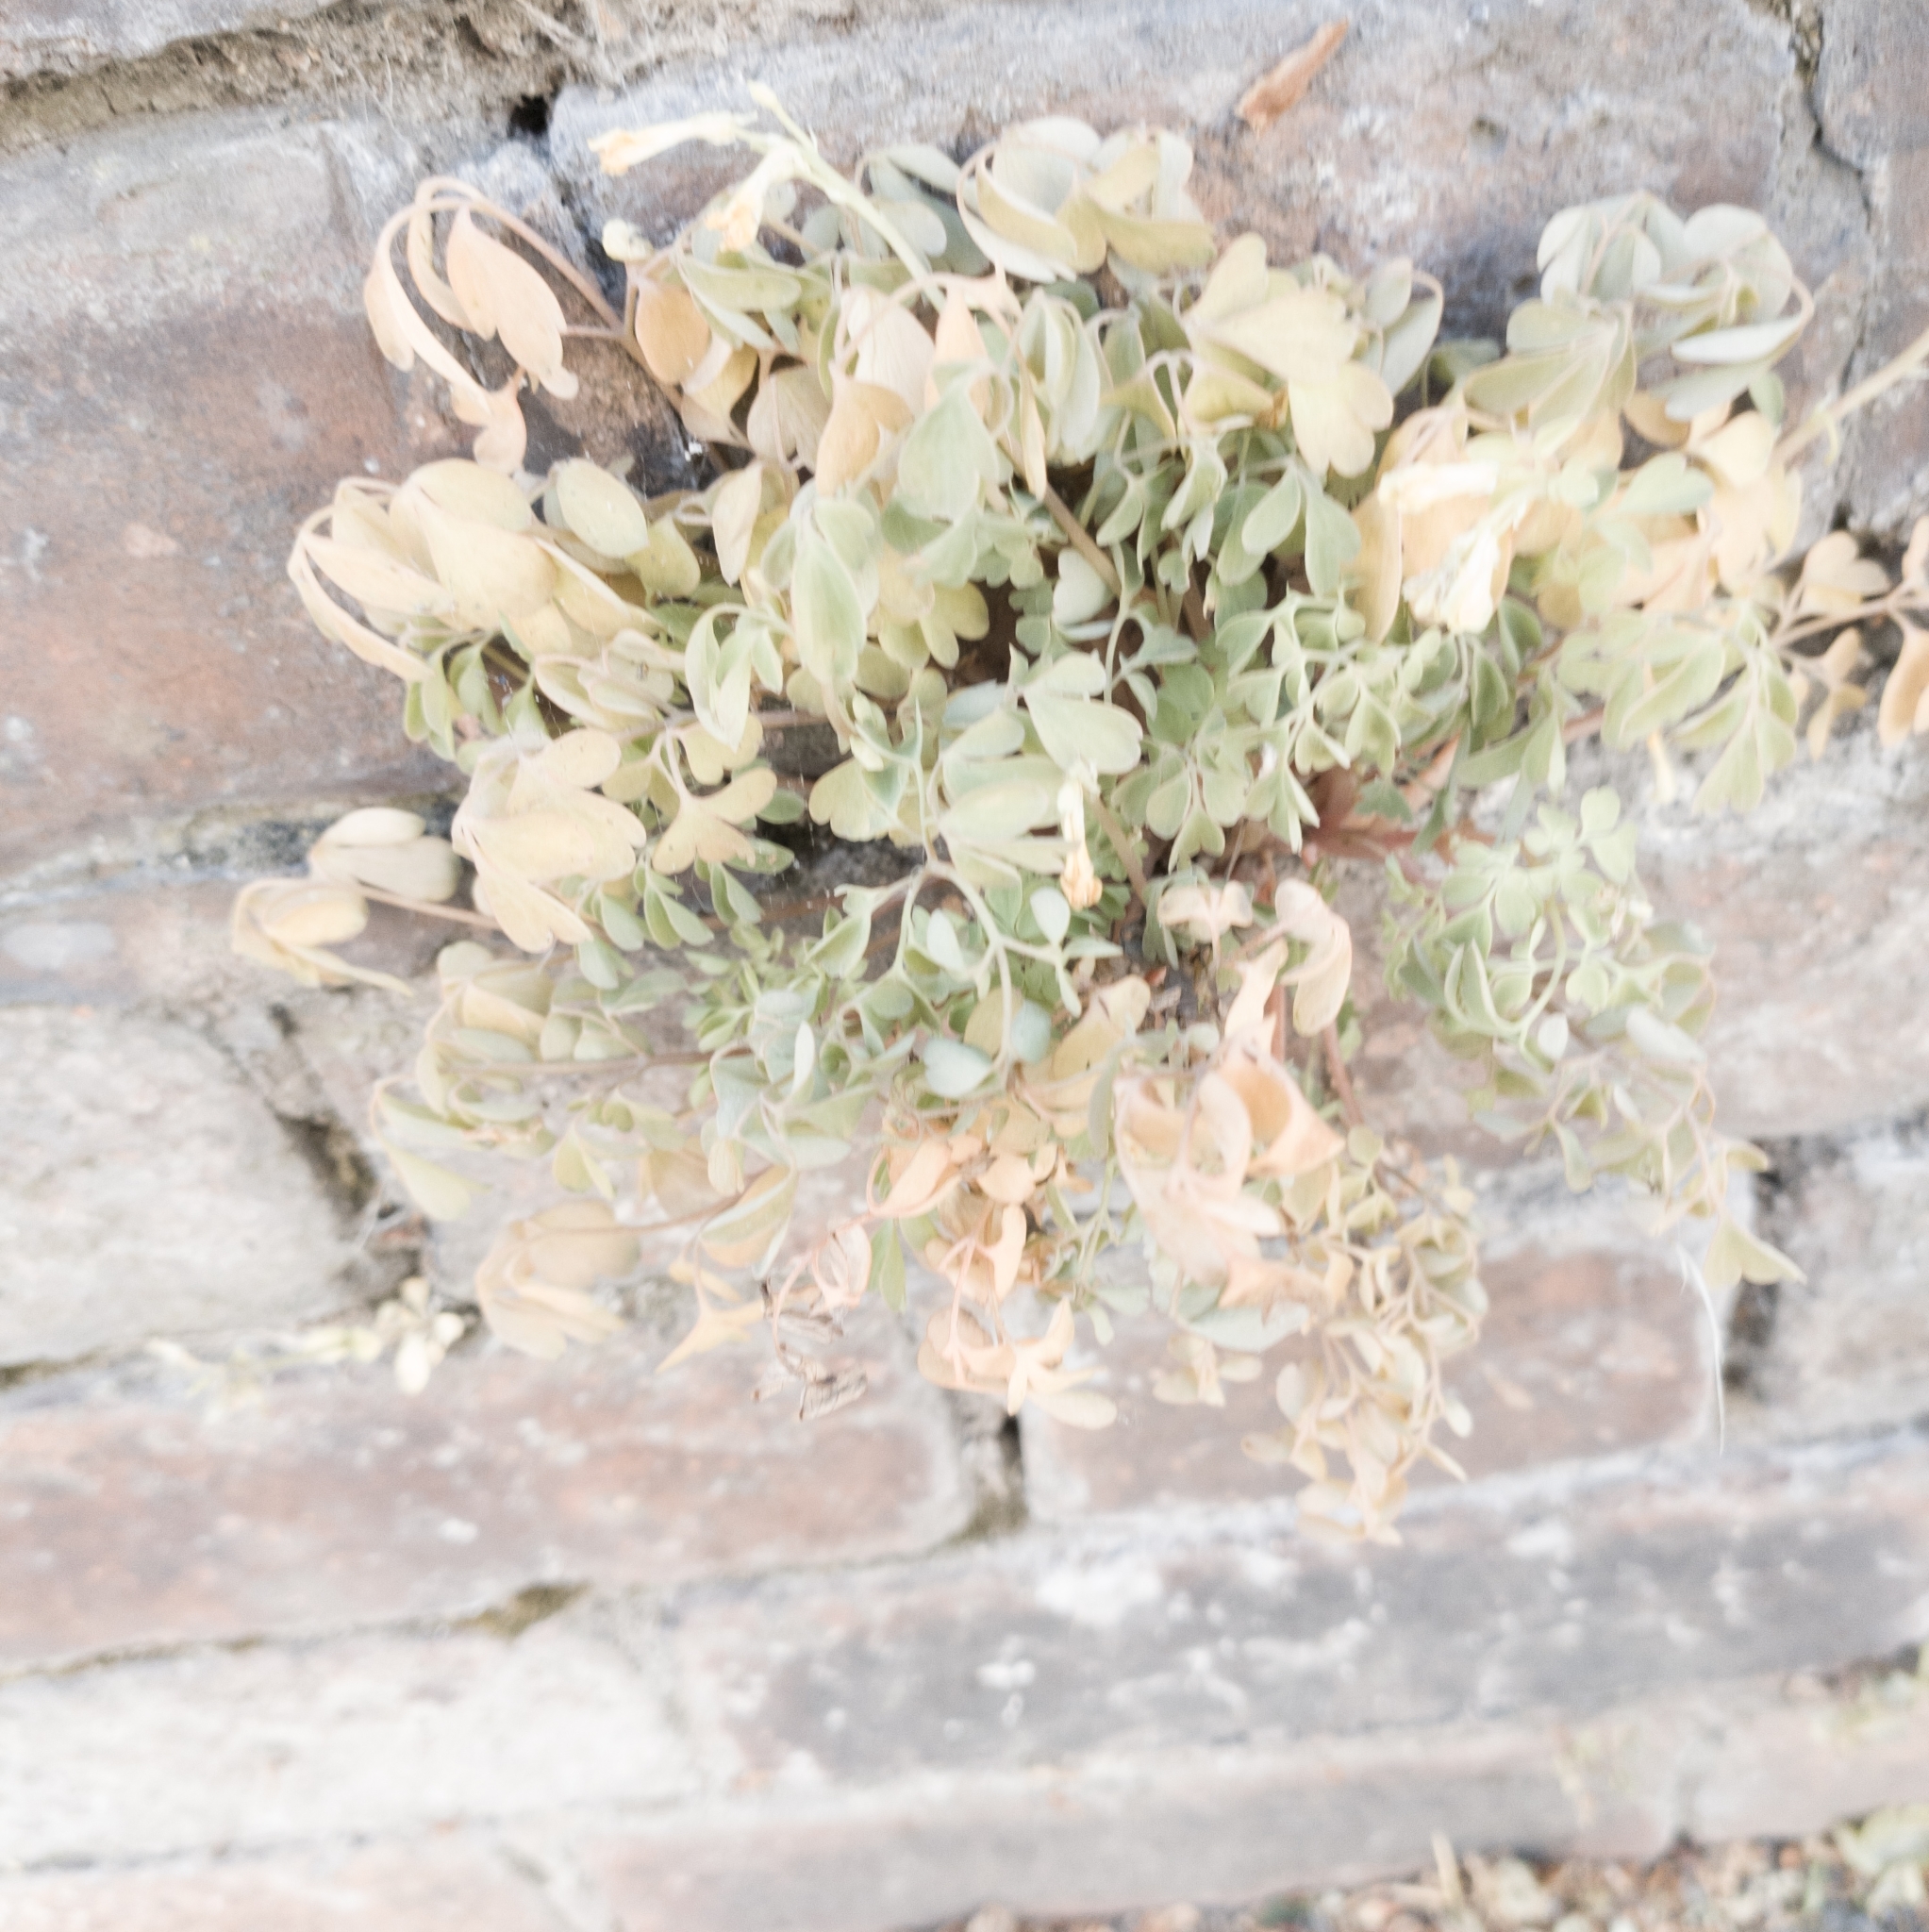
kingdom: Plantae
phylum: Tracheophyta
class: Magnoliopsida
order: Ranunculales
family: Papaveraceae
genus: Pseudofumaria
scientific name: Pseudofumaria lutea
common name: Yellow corydalis
